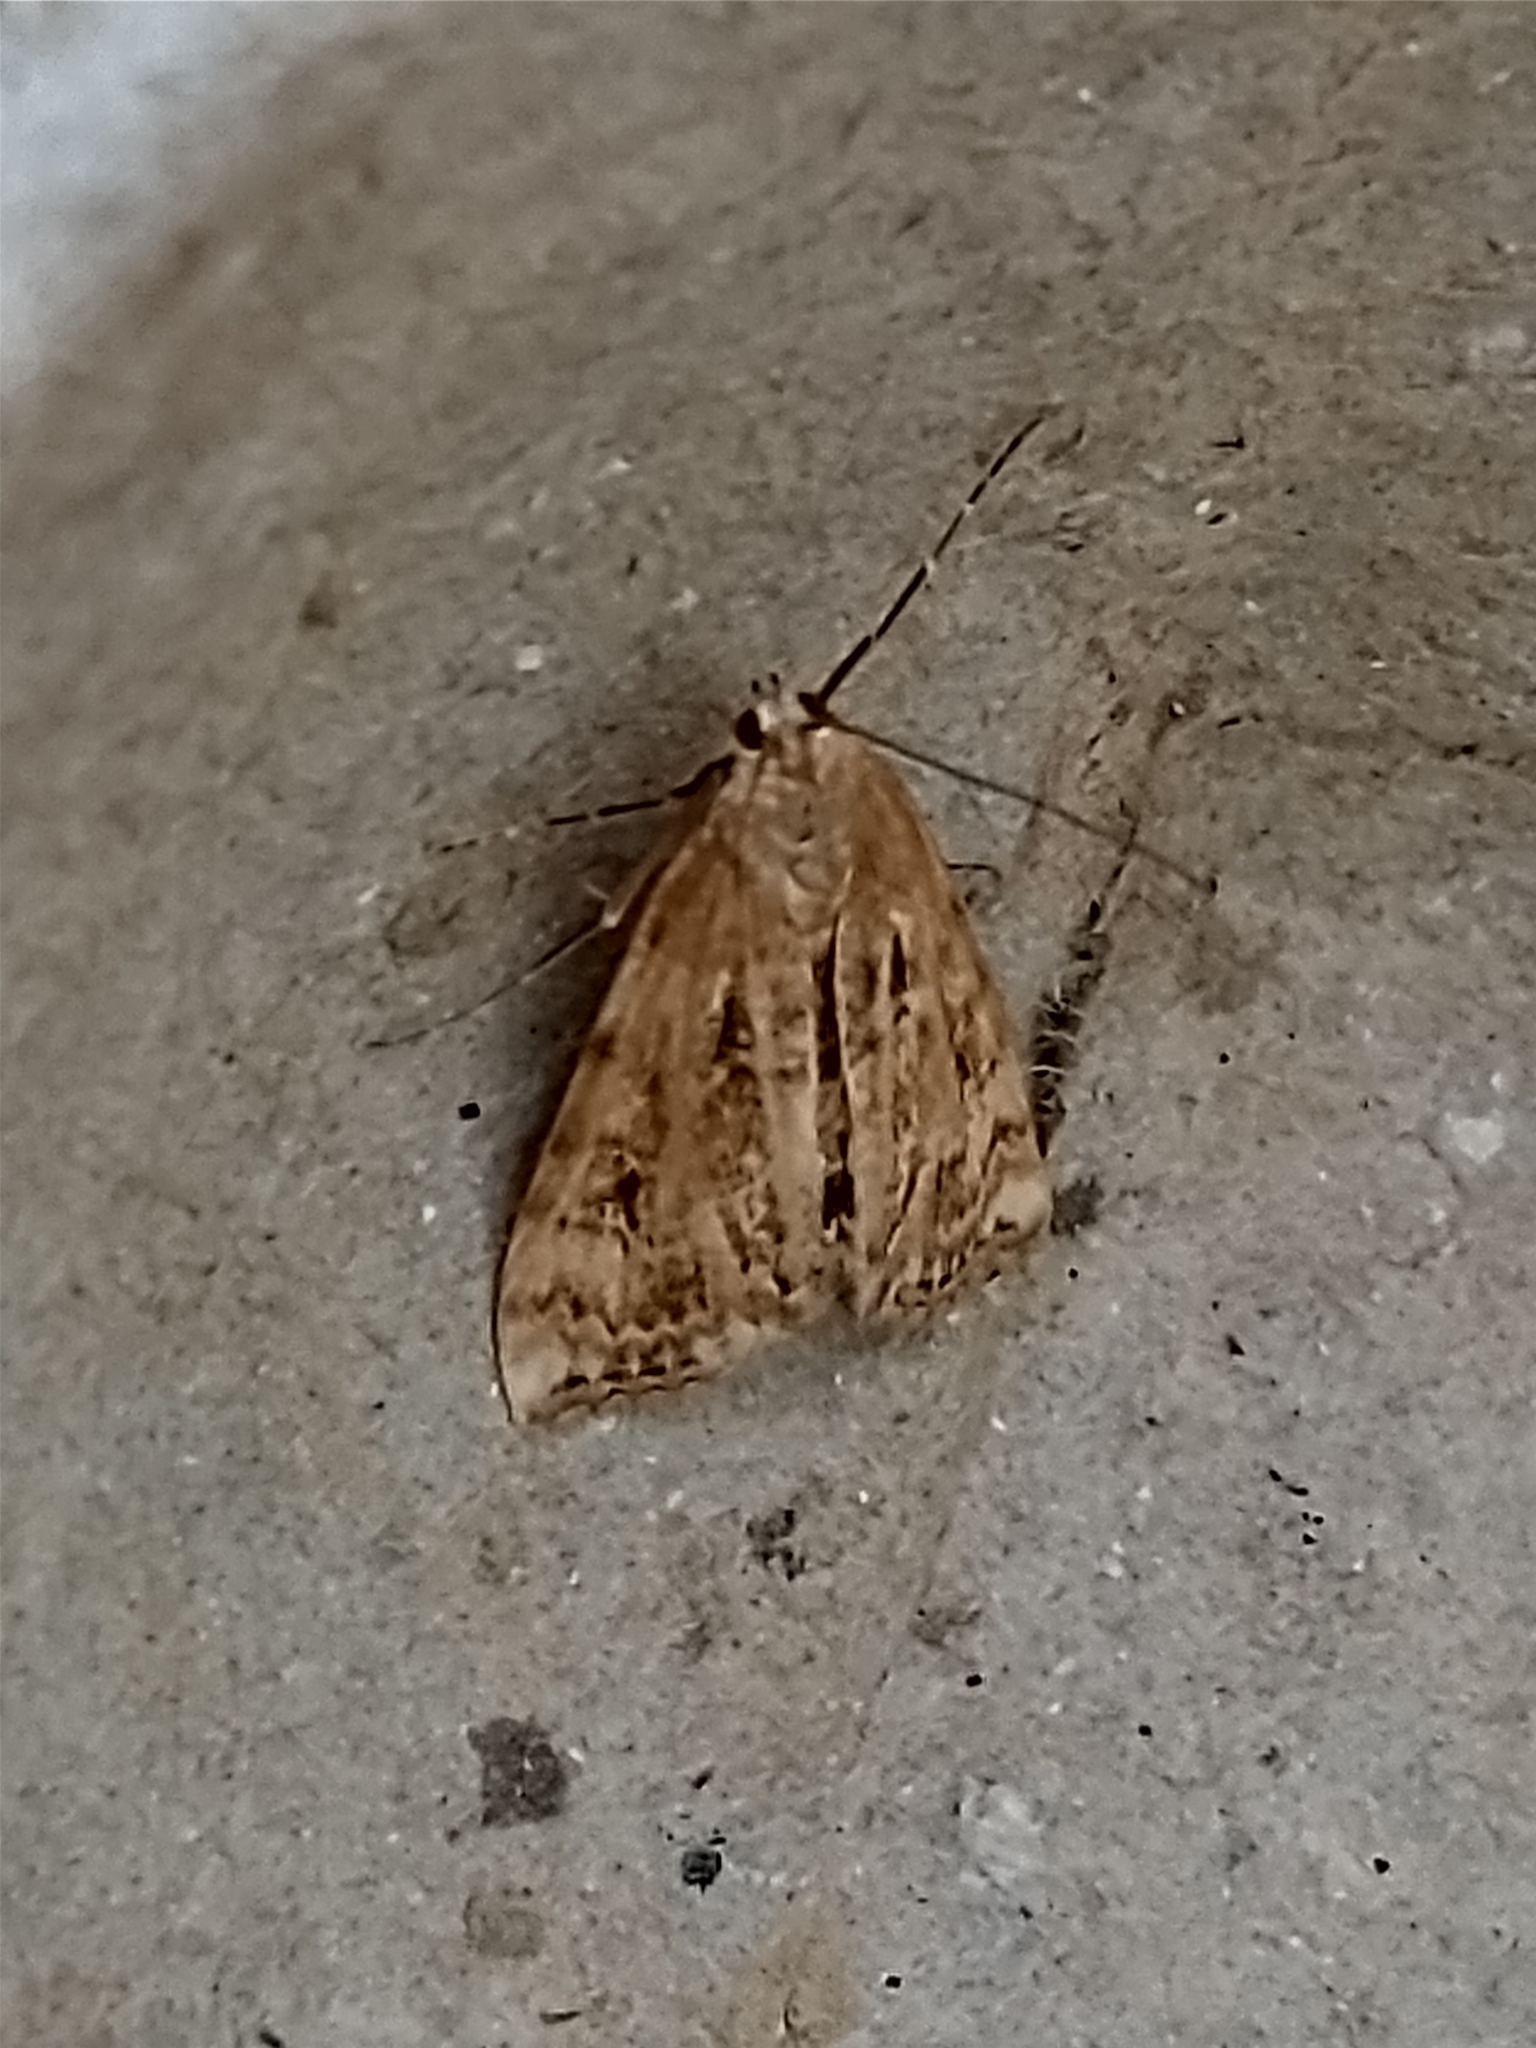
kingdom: Animalia
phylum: Arthropoda
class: Insecta
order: Lepidoptera
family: Crambidae
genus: Cataclysta
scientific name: Cataclysta lemnata
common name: Small china-mark
